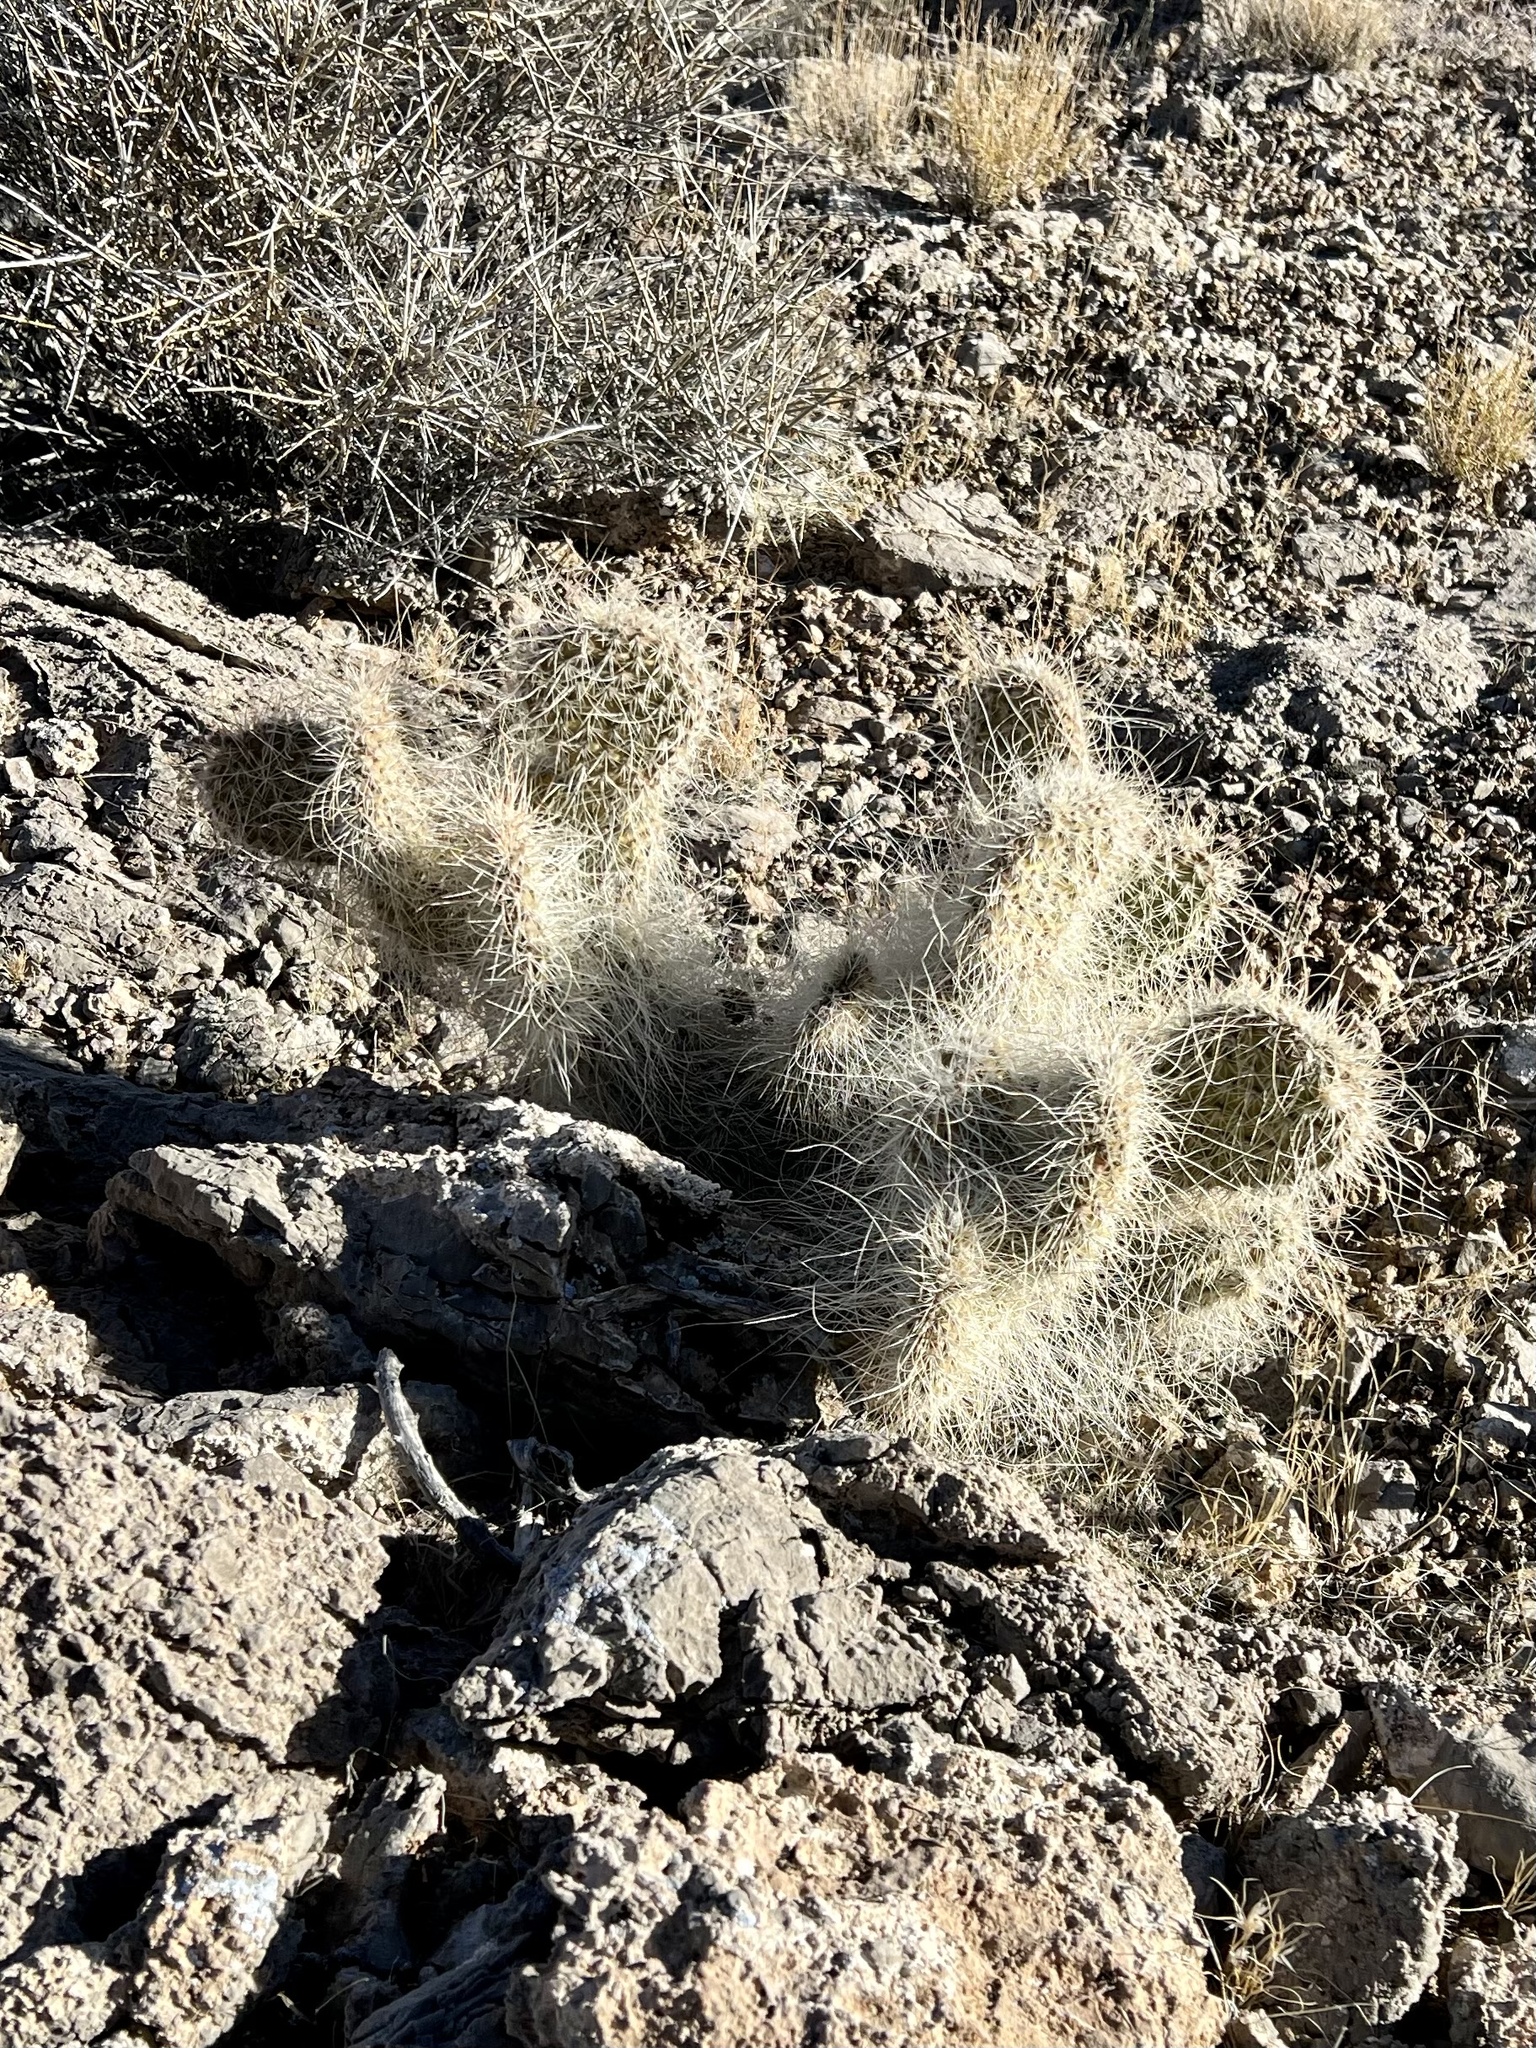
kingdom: Plantae
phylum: Tracheophyta
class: Magnoliopsida
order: Caryophyllales
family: Cactaceae
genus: Opuntia
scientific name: Opuntia polyacantha
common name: Plains prickly-pear
